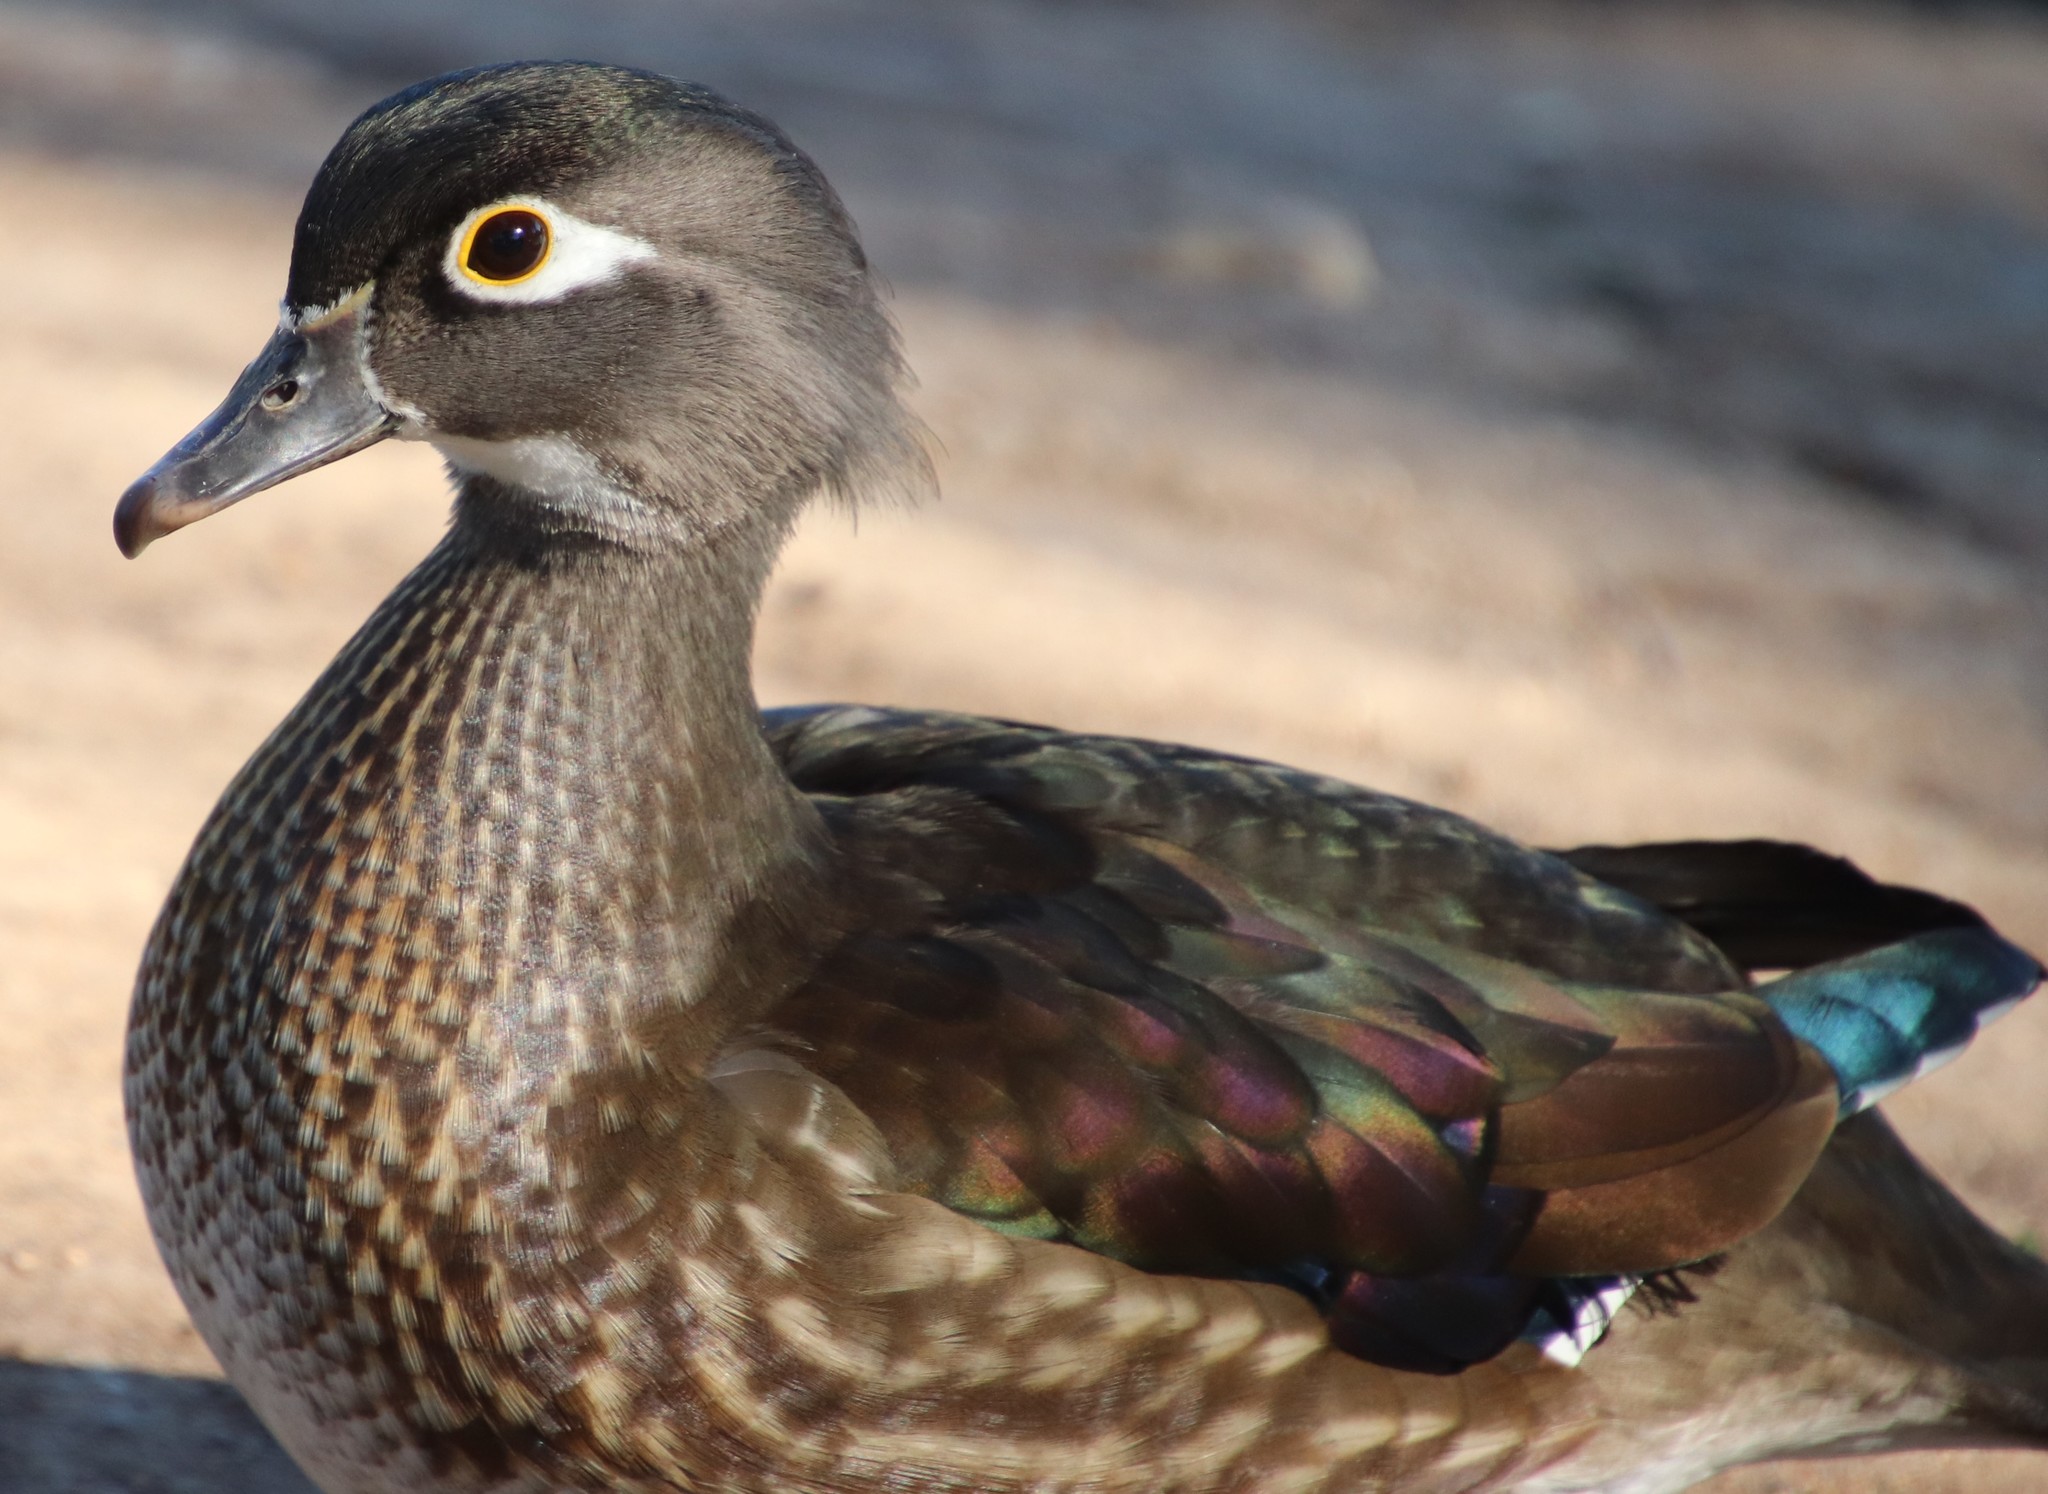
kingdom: Animalia
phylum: Chordata
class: Aves
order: Anseriformes
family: Anatidae
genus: Aix
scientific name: Aix sponsa
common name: Wood duck
